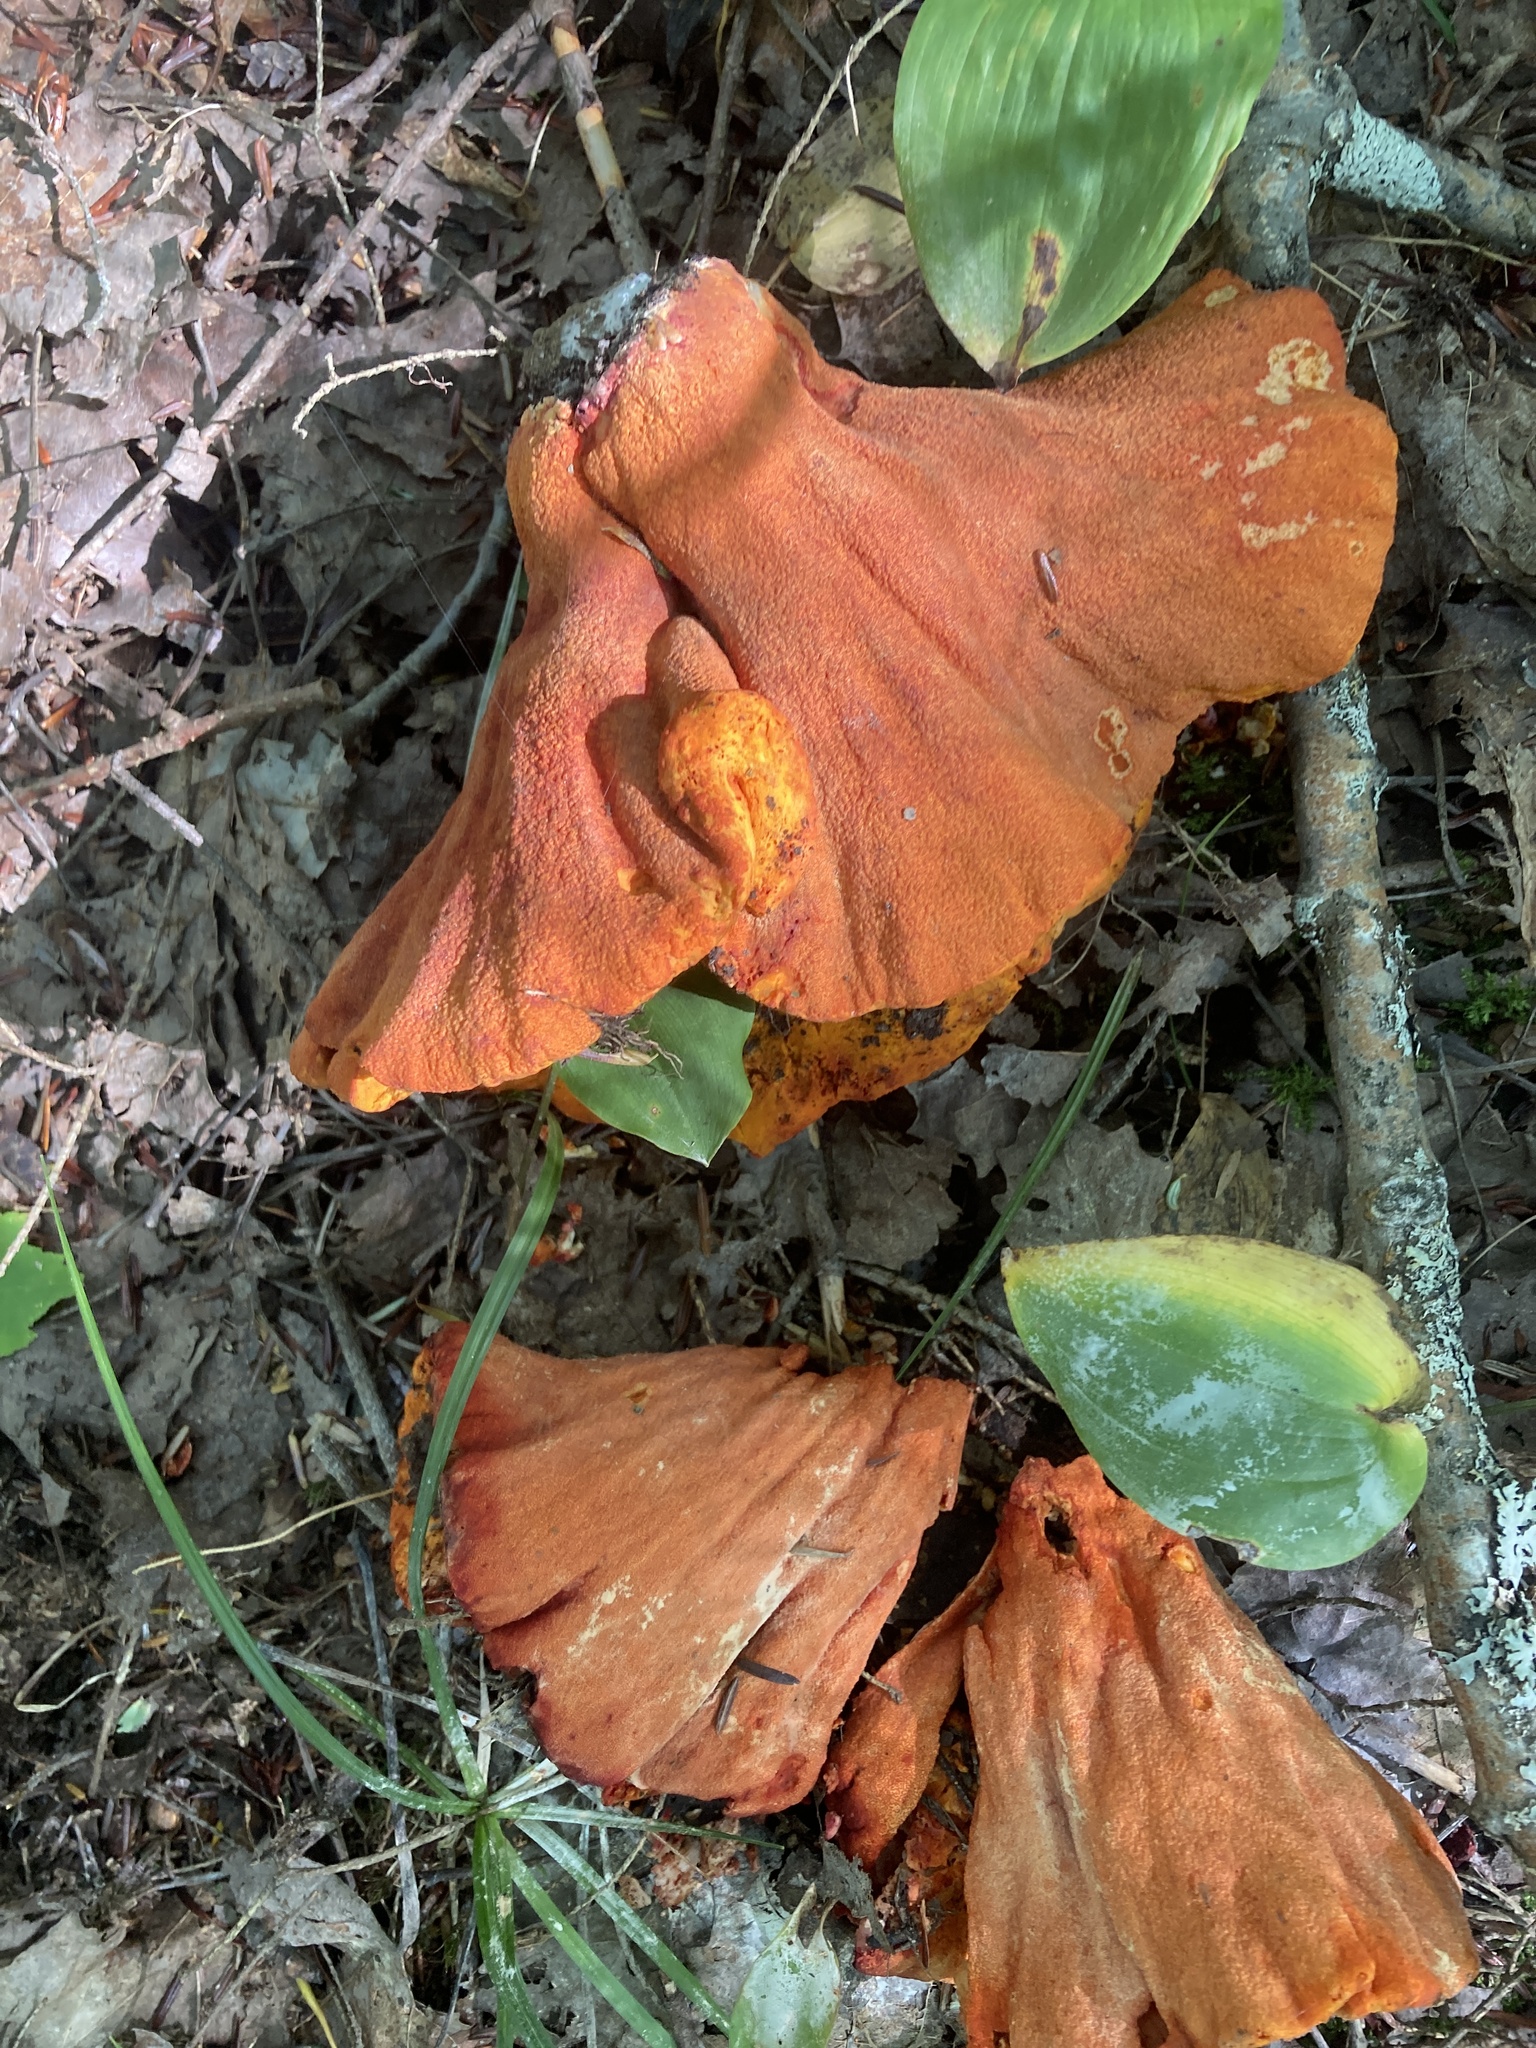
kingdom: Fungi
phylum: Ascomycota
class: Sordariomycetes
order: Hypocreales
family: Hypocreaceae
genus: Hypomyces
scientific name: Hypomyces lactifluorum
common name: Lobster mushroom
